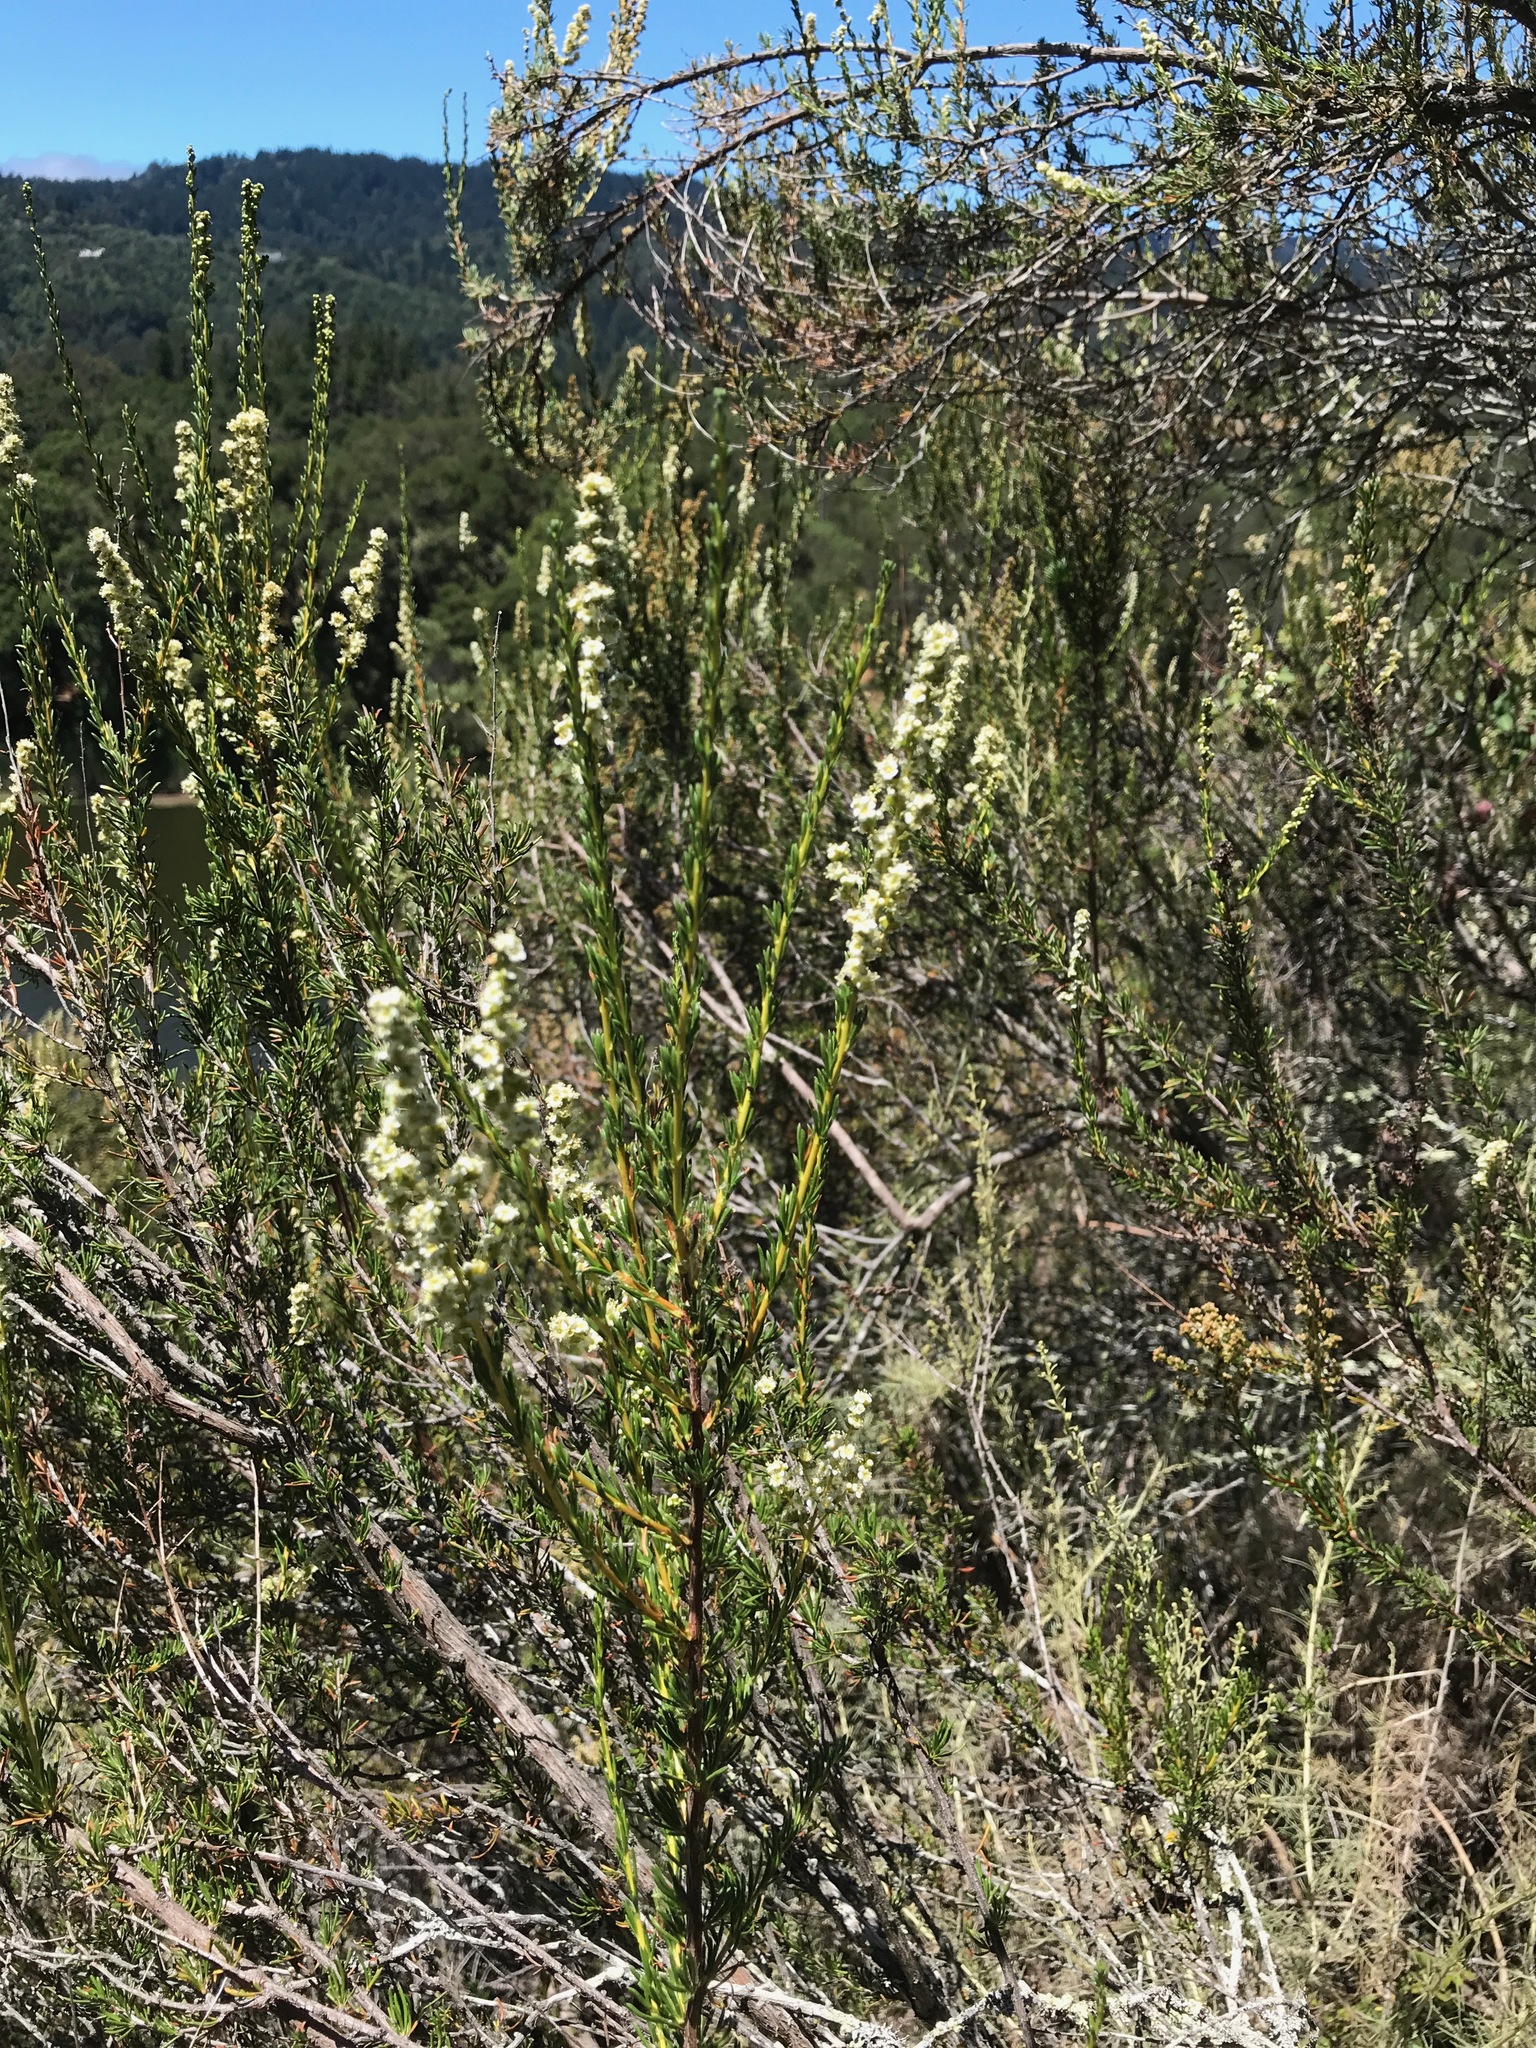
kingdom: Plantae
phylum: Tracheophyta
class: Magnoliopsida
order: Rosales
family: Rosaceae
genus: Adenostoma
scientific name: Adenostoma fasciculatum
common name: Chamise
